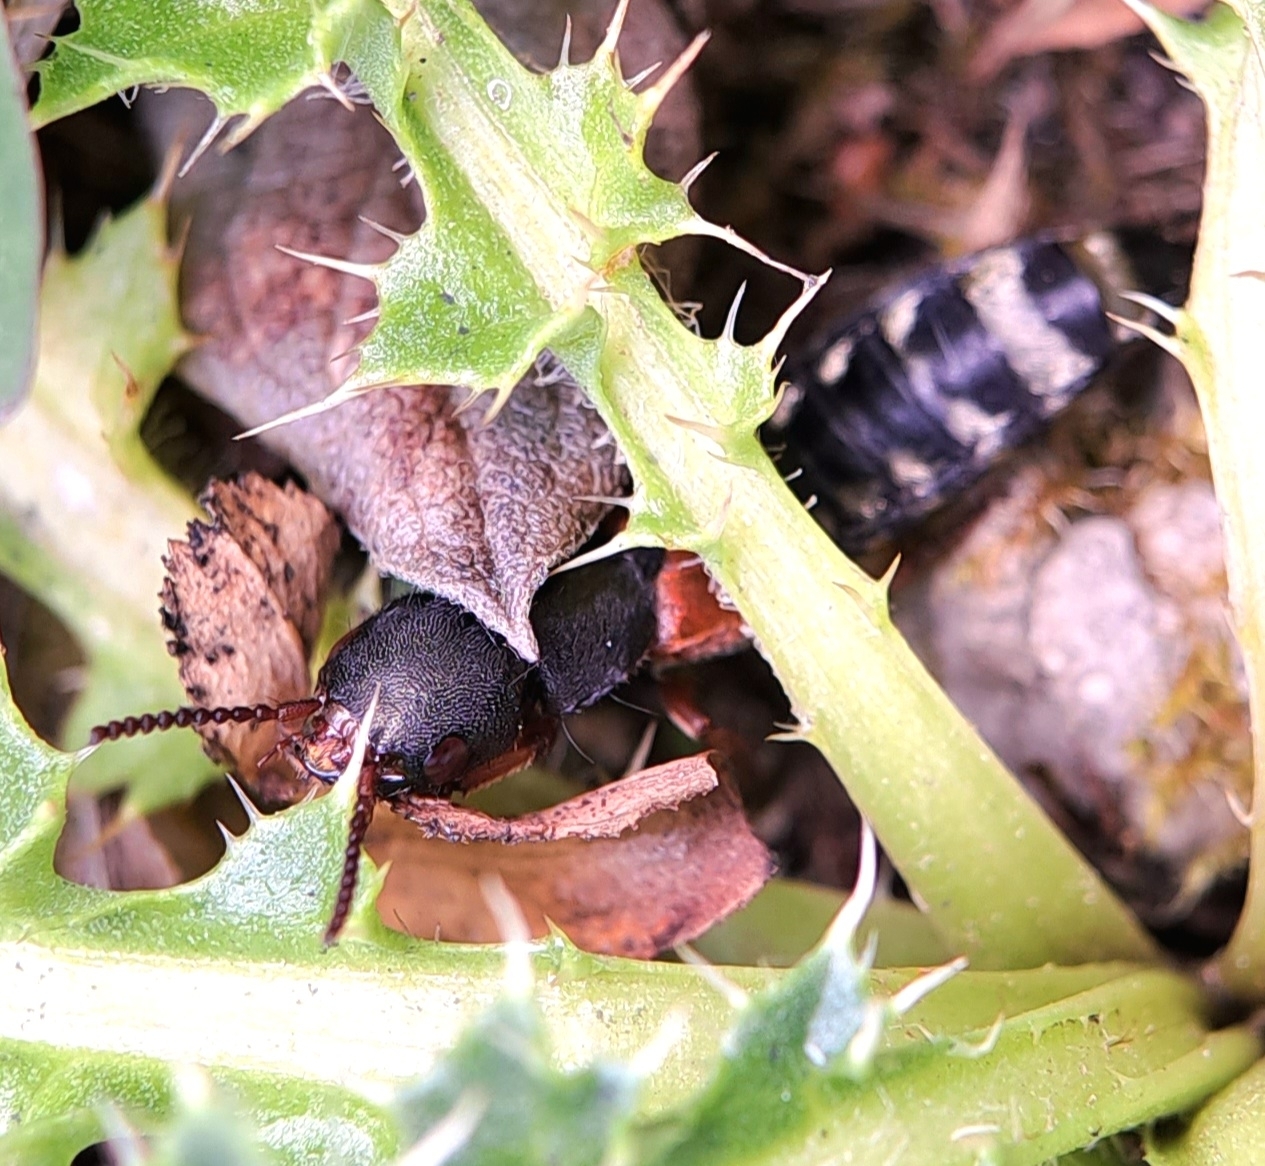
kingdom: Animalia
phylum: Arthropoda
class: Insecta
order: Coleoptera
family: Staphylinidae
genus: Platydracus
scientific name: Platydracus stercorarius
